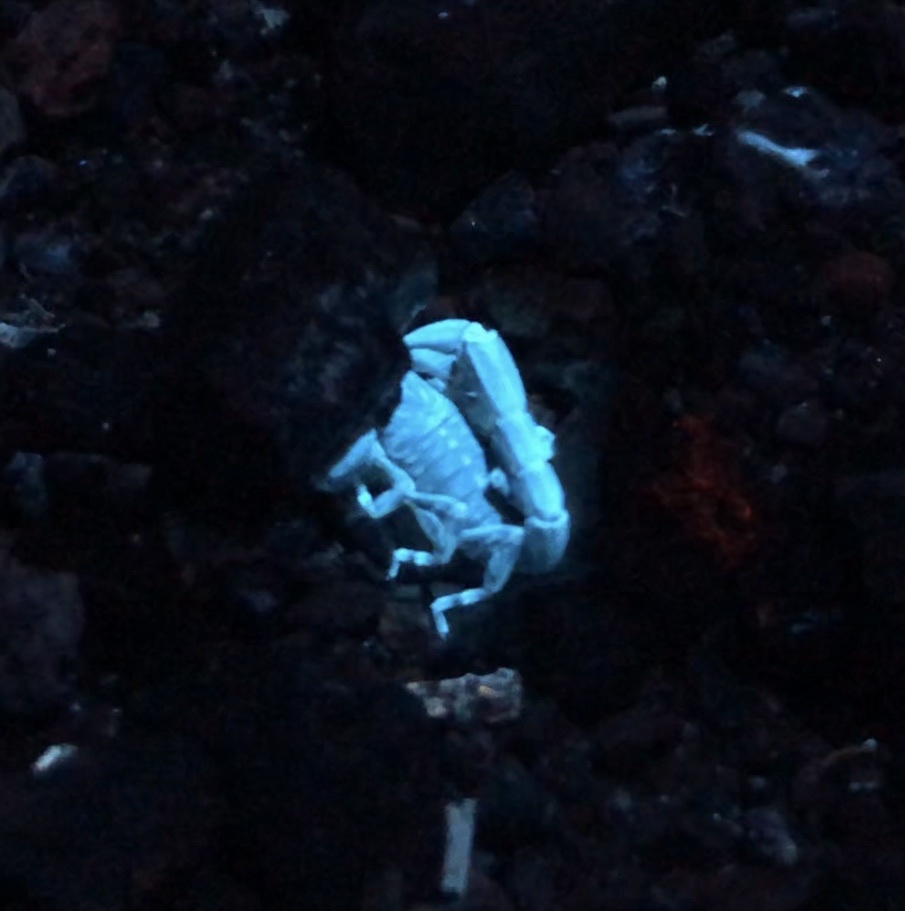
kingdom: Animalia
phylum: Arthropoda
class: Arachnida
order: Scorpiones
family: Bothriuridae
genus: Cercophonius
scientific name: Cercophonius squama
